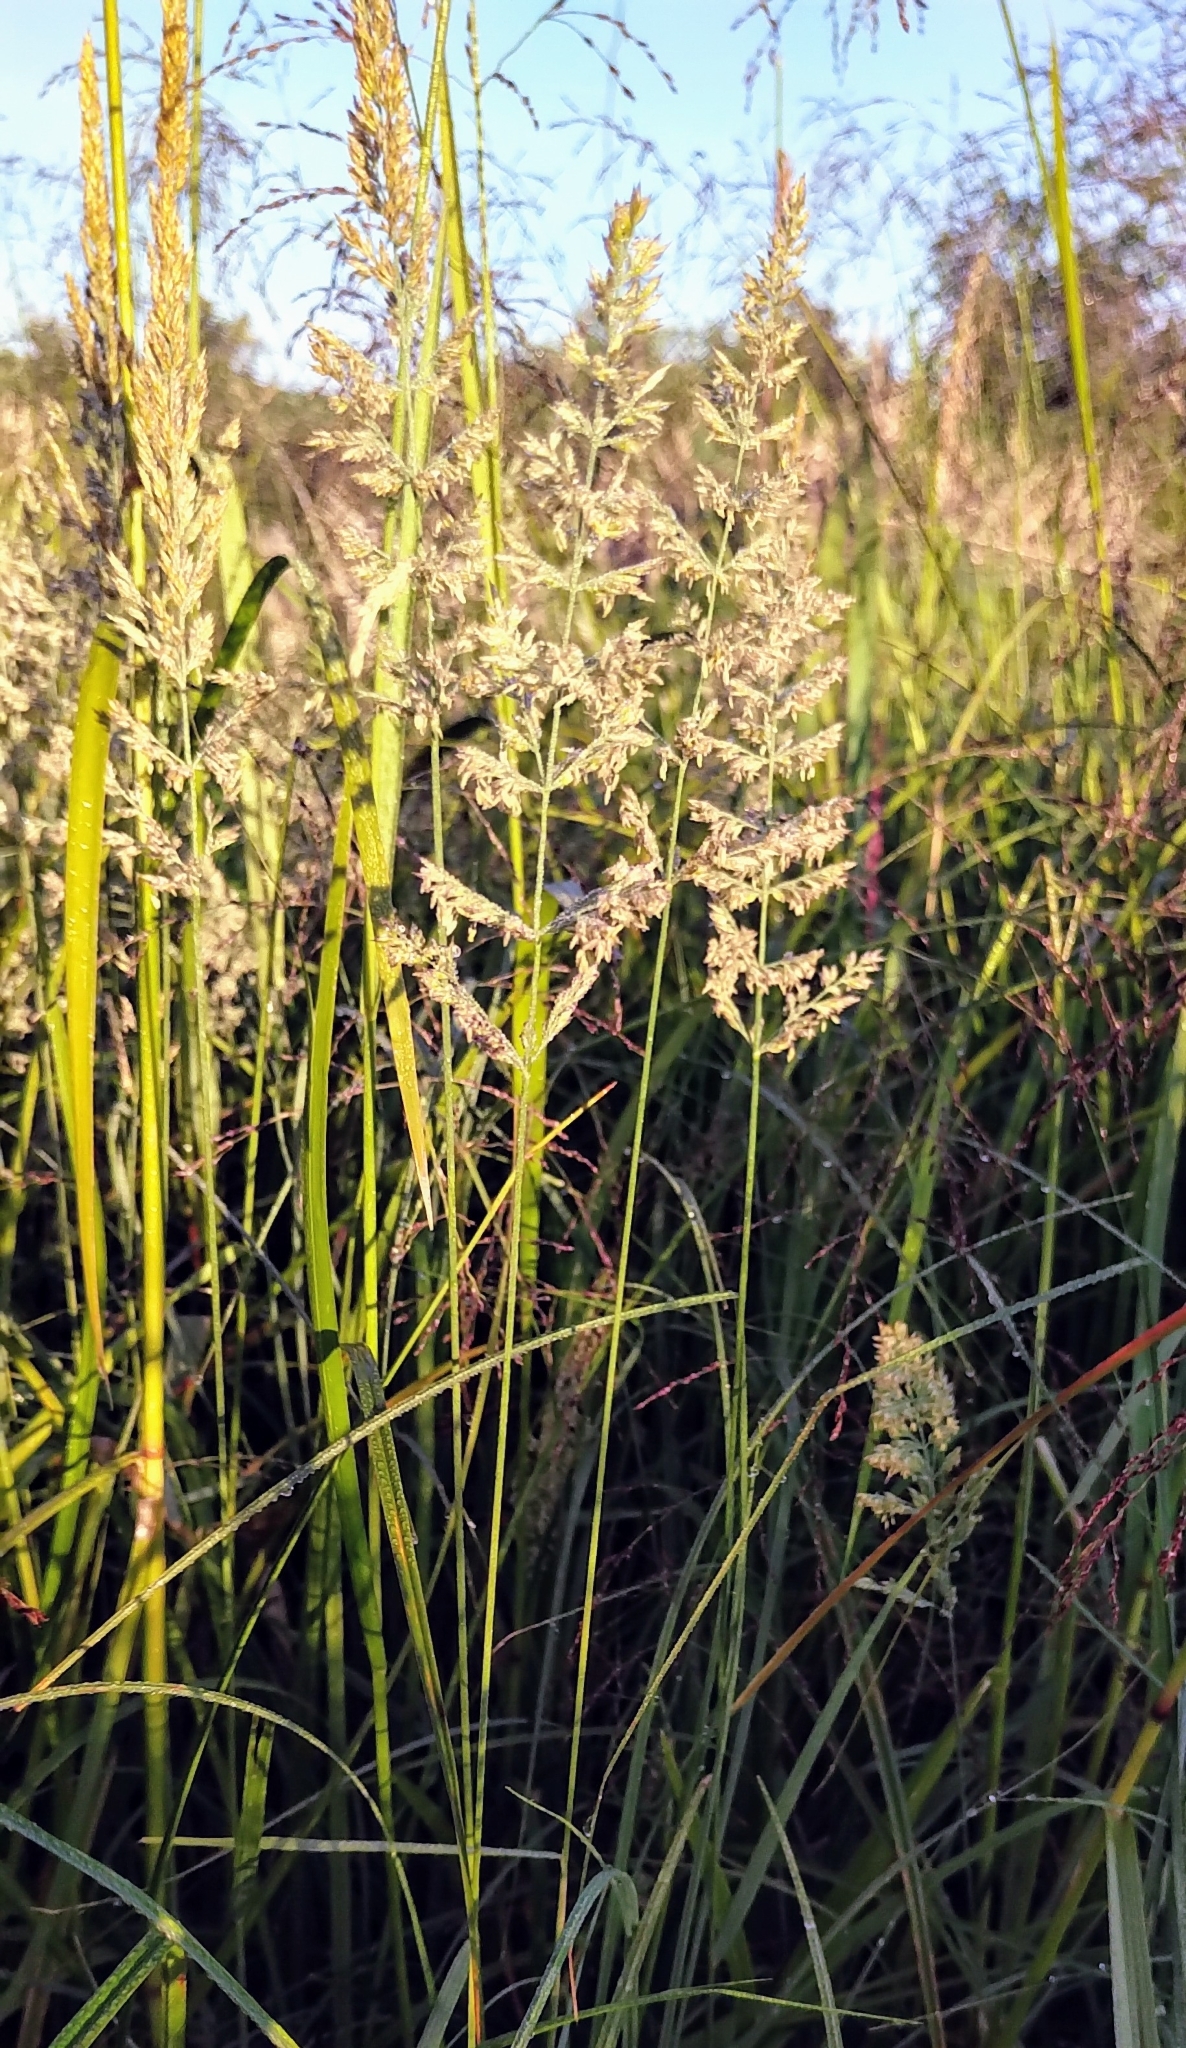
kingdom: Plantae
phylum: Tracheophyta
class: Liliopsida
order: Poales
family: Poaceae
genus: Phalaris
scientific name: Phalaris arundinacea
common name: Reed canary-grass
